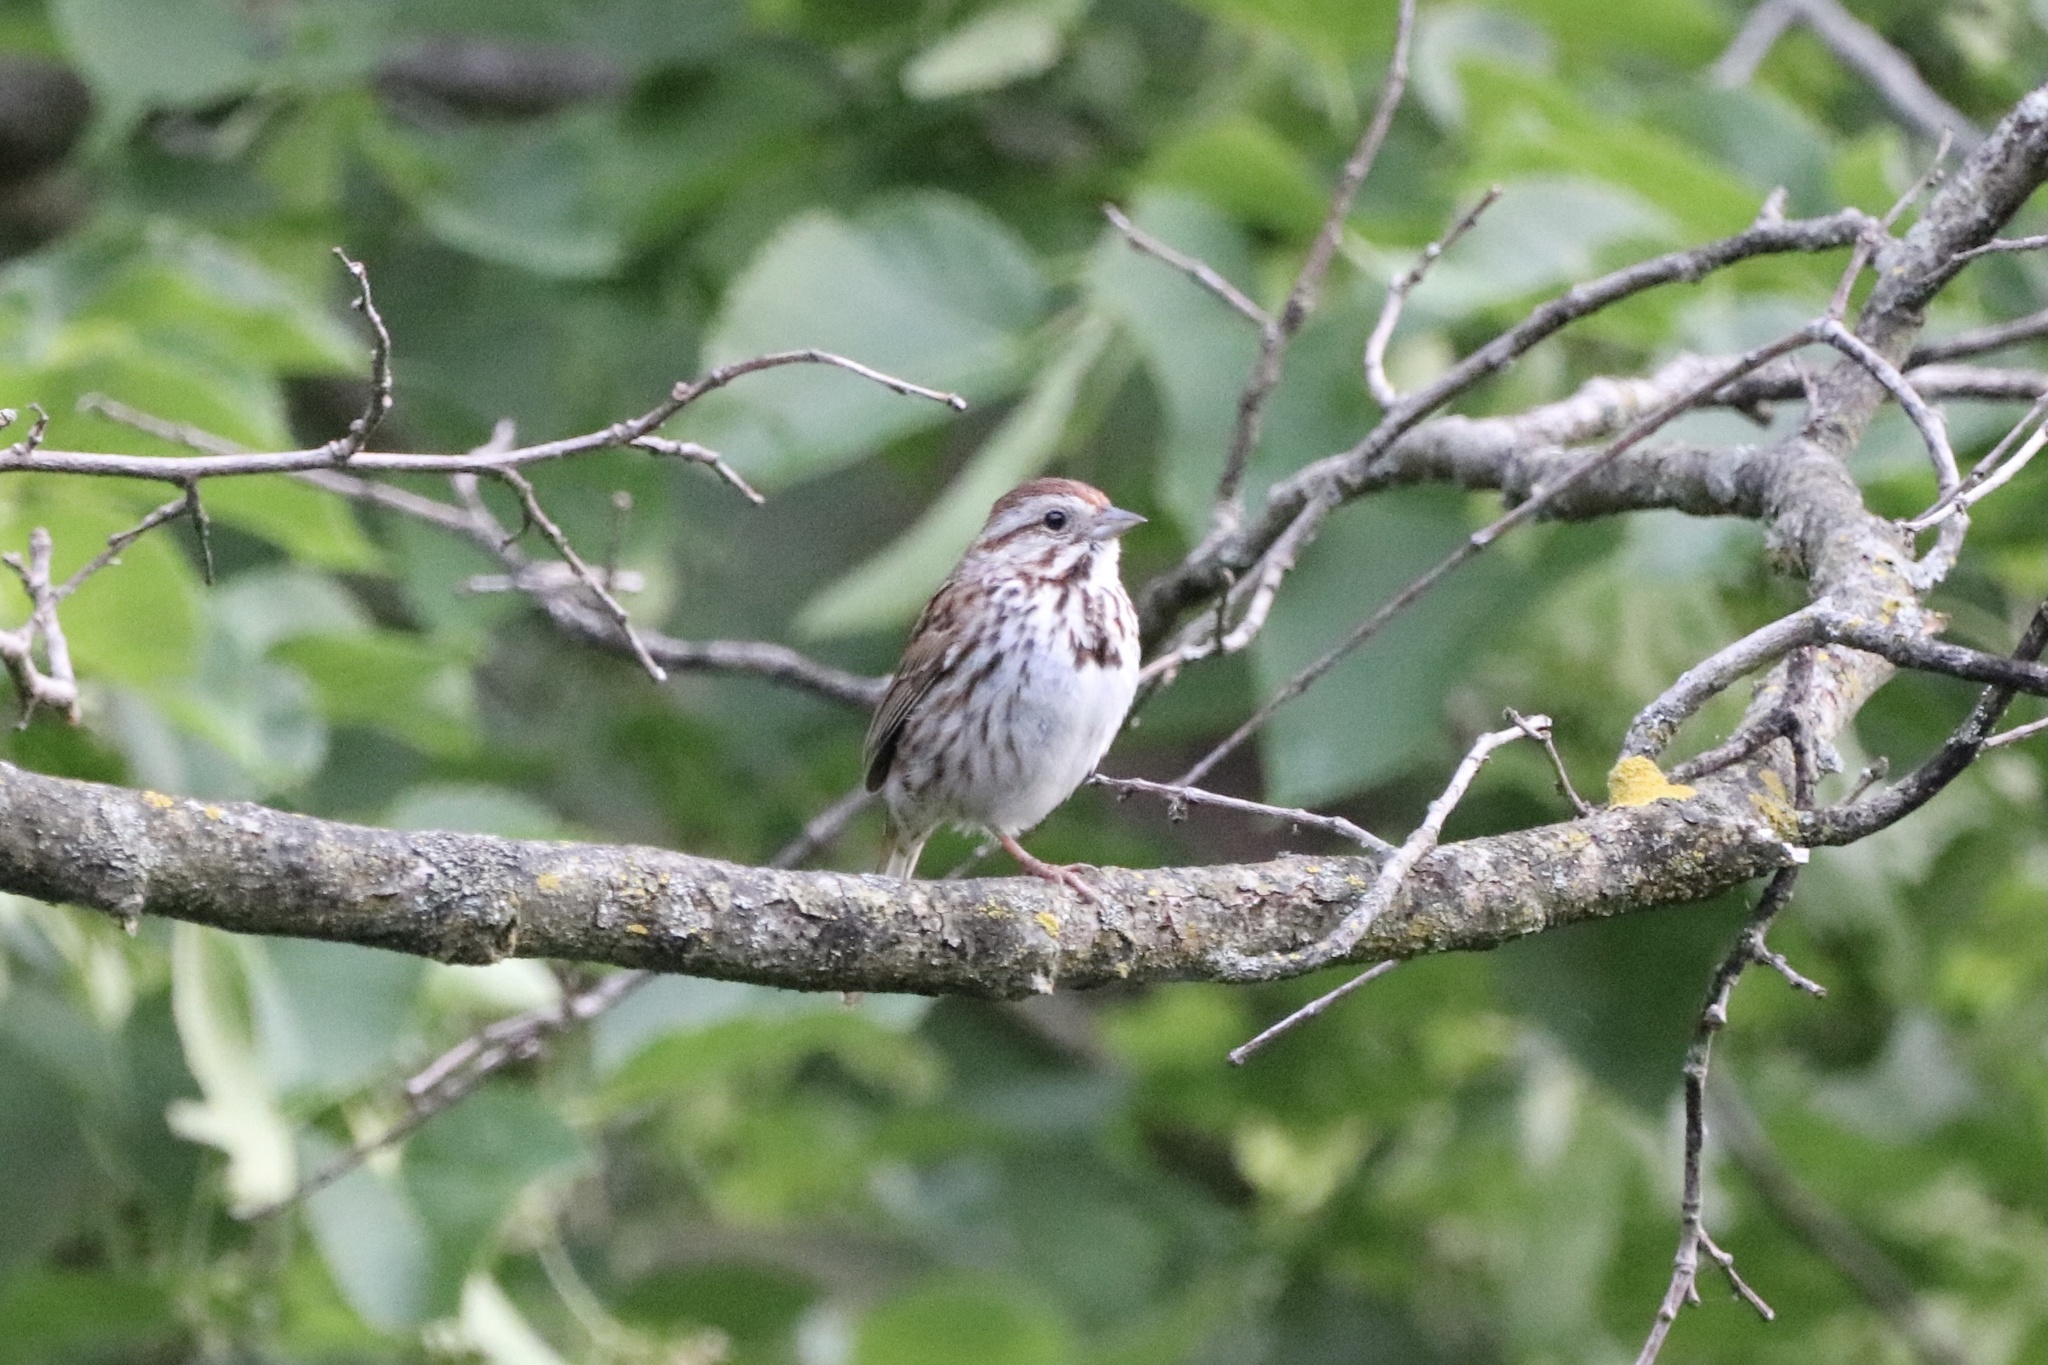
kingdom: Animalia
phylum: Chordata
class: Aves
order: Passeriformes
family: Passerellidae
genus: Melospiza
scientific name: Melospiza melodia
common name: Song sparrow
